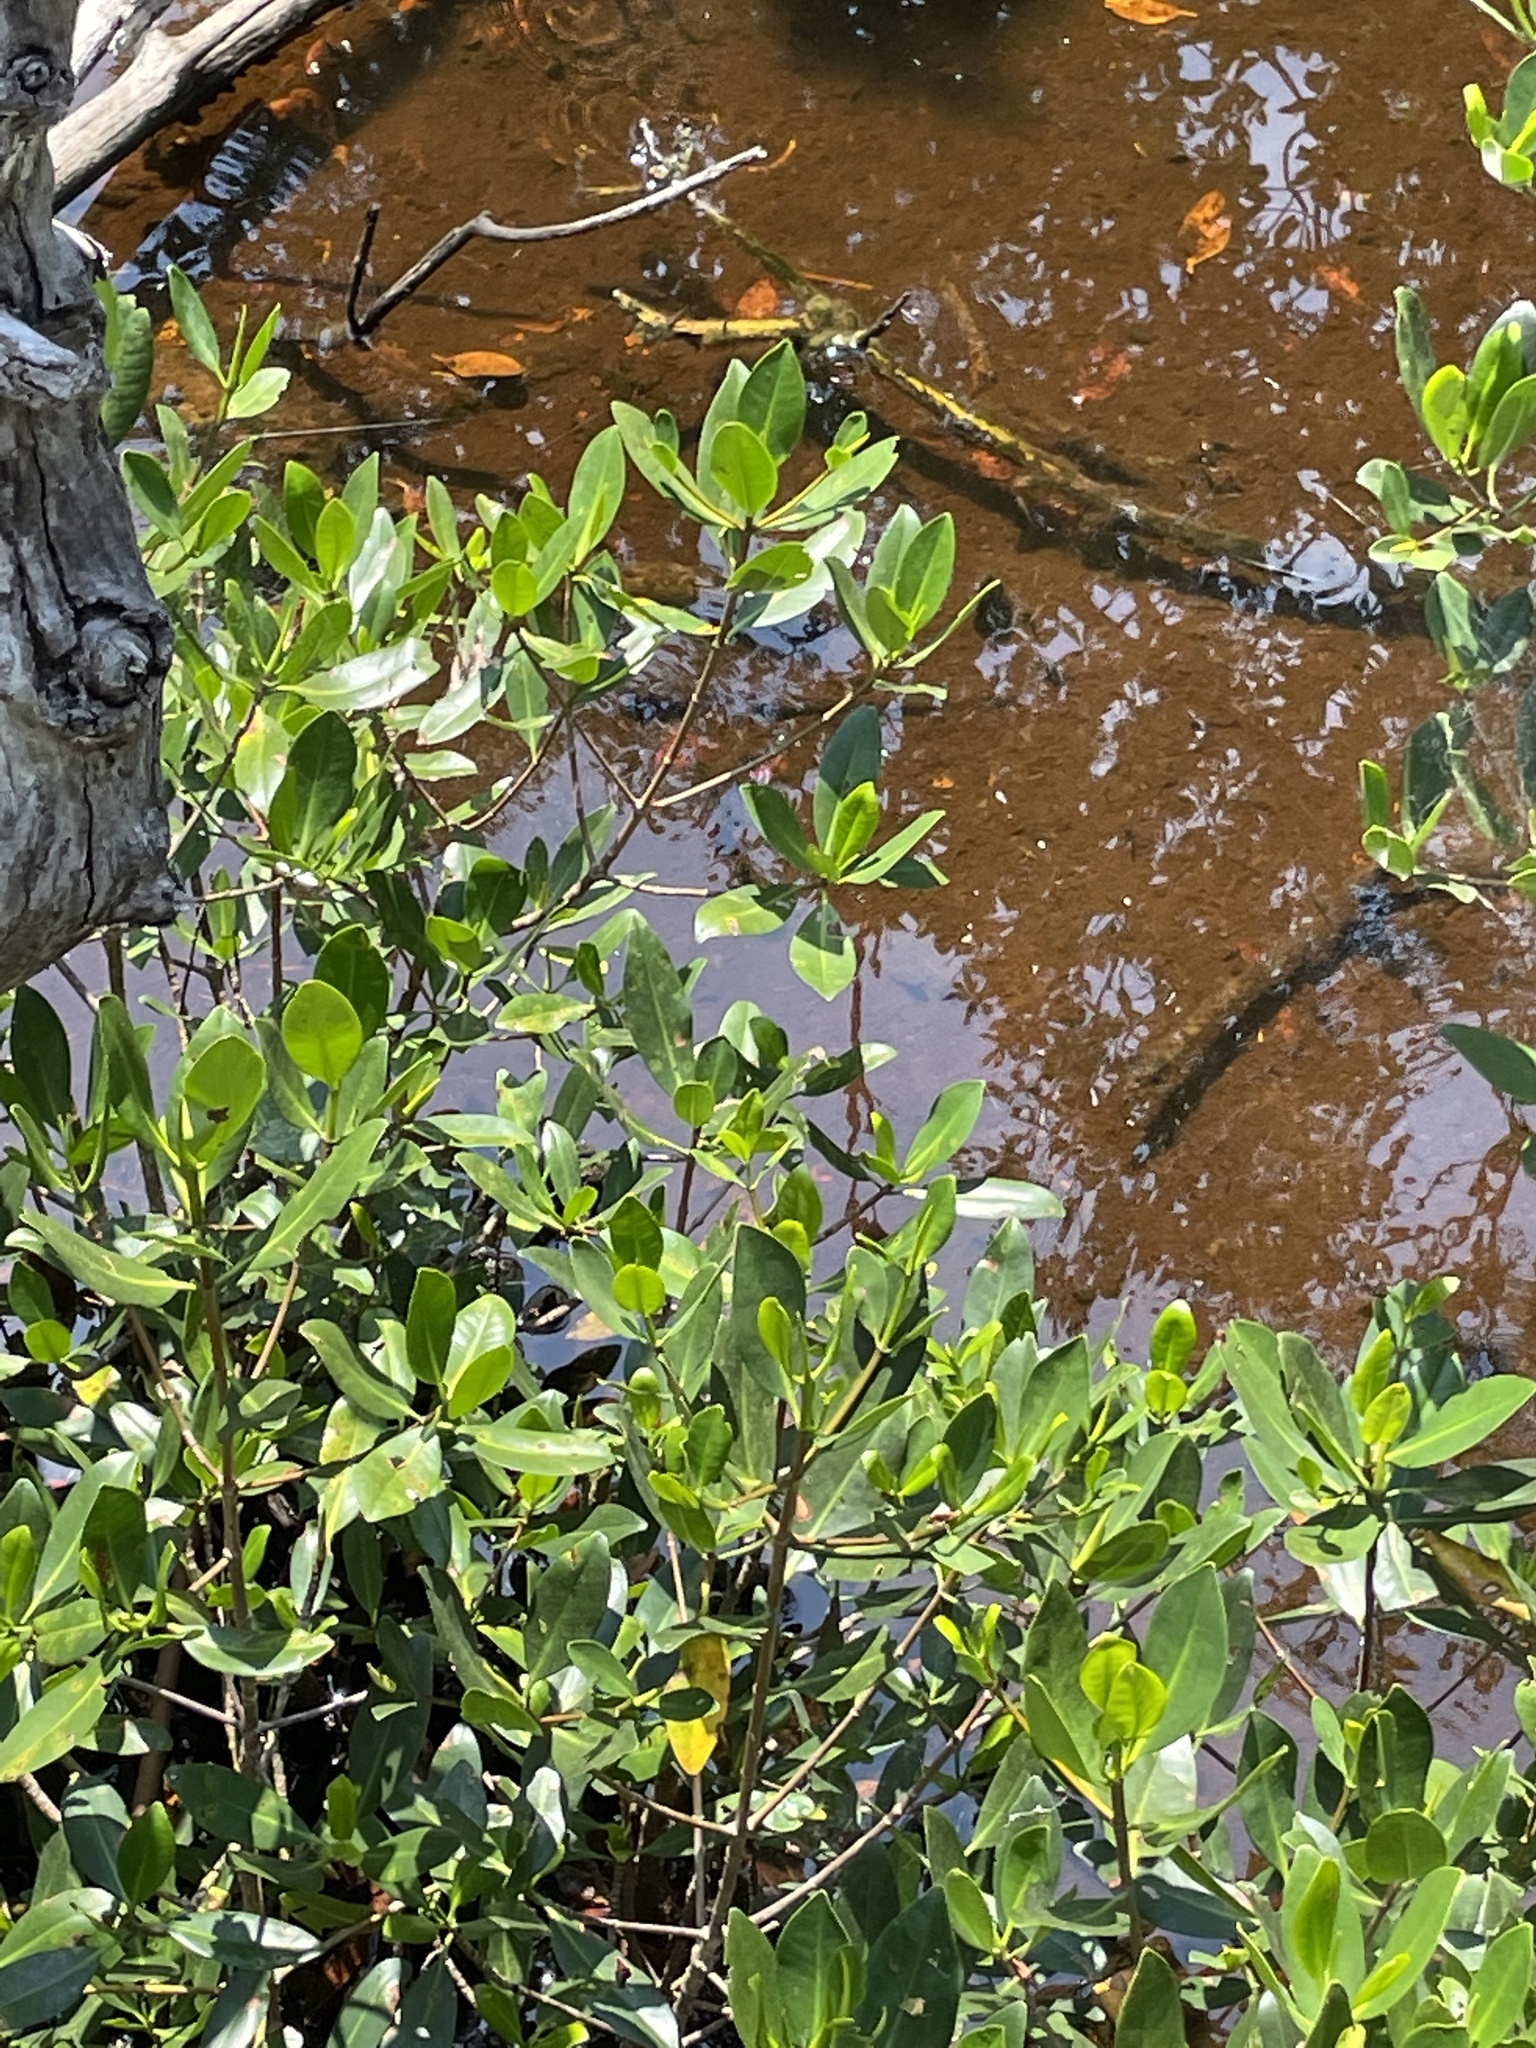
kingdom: Plantae
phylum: Tracheophyta
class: Magnoliopsida
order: Malpighiales
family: Rhizophoraceae
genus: Rhizophora
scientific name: Rhizophora mangle
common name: Red mangrove
